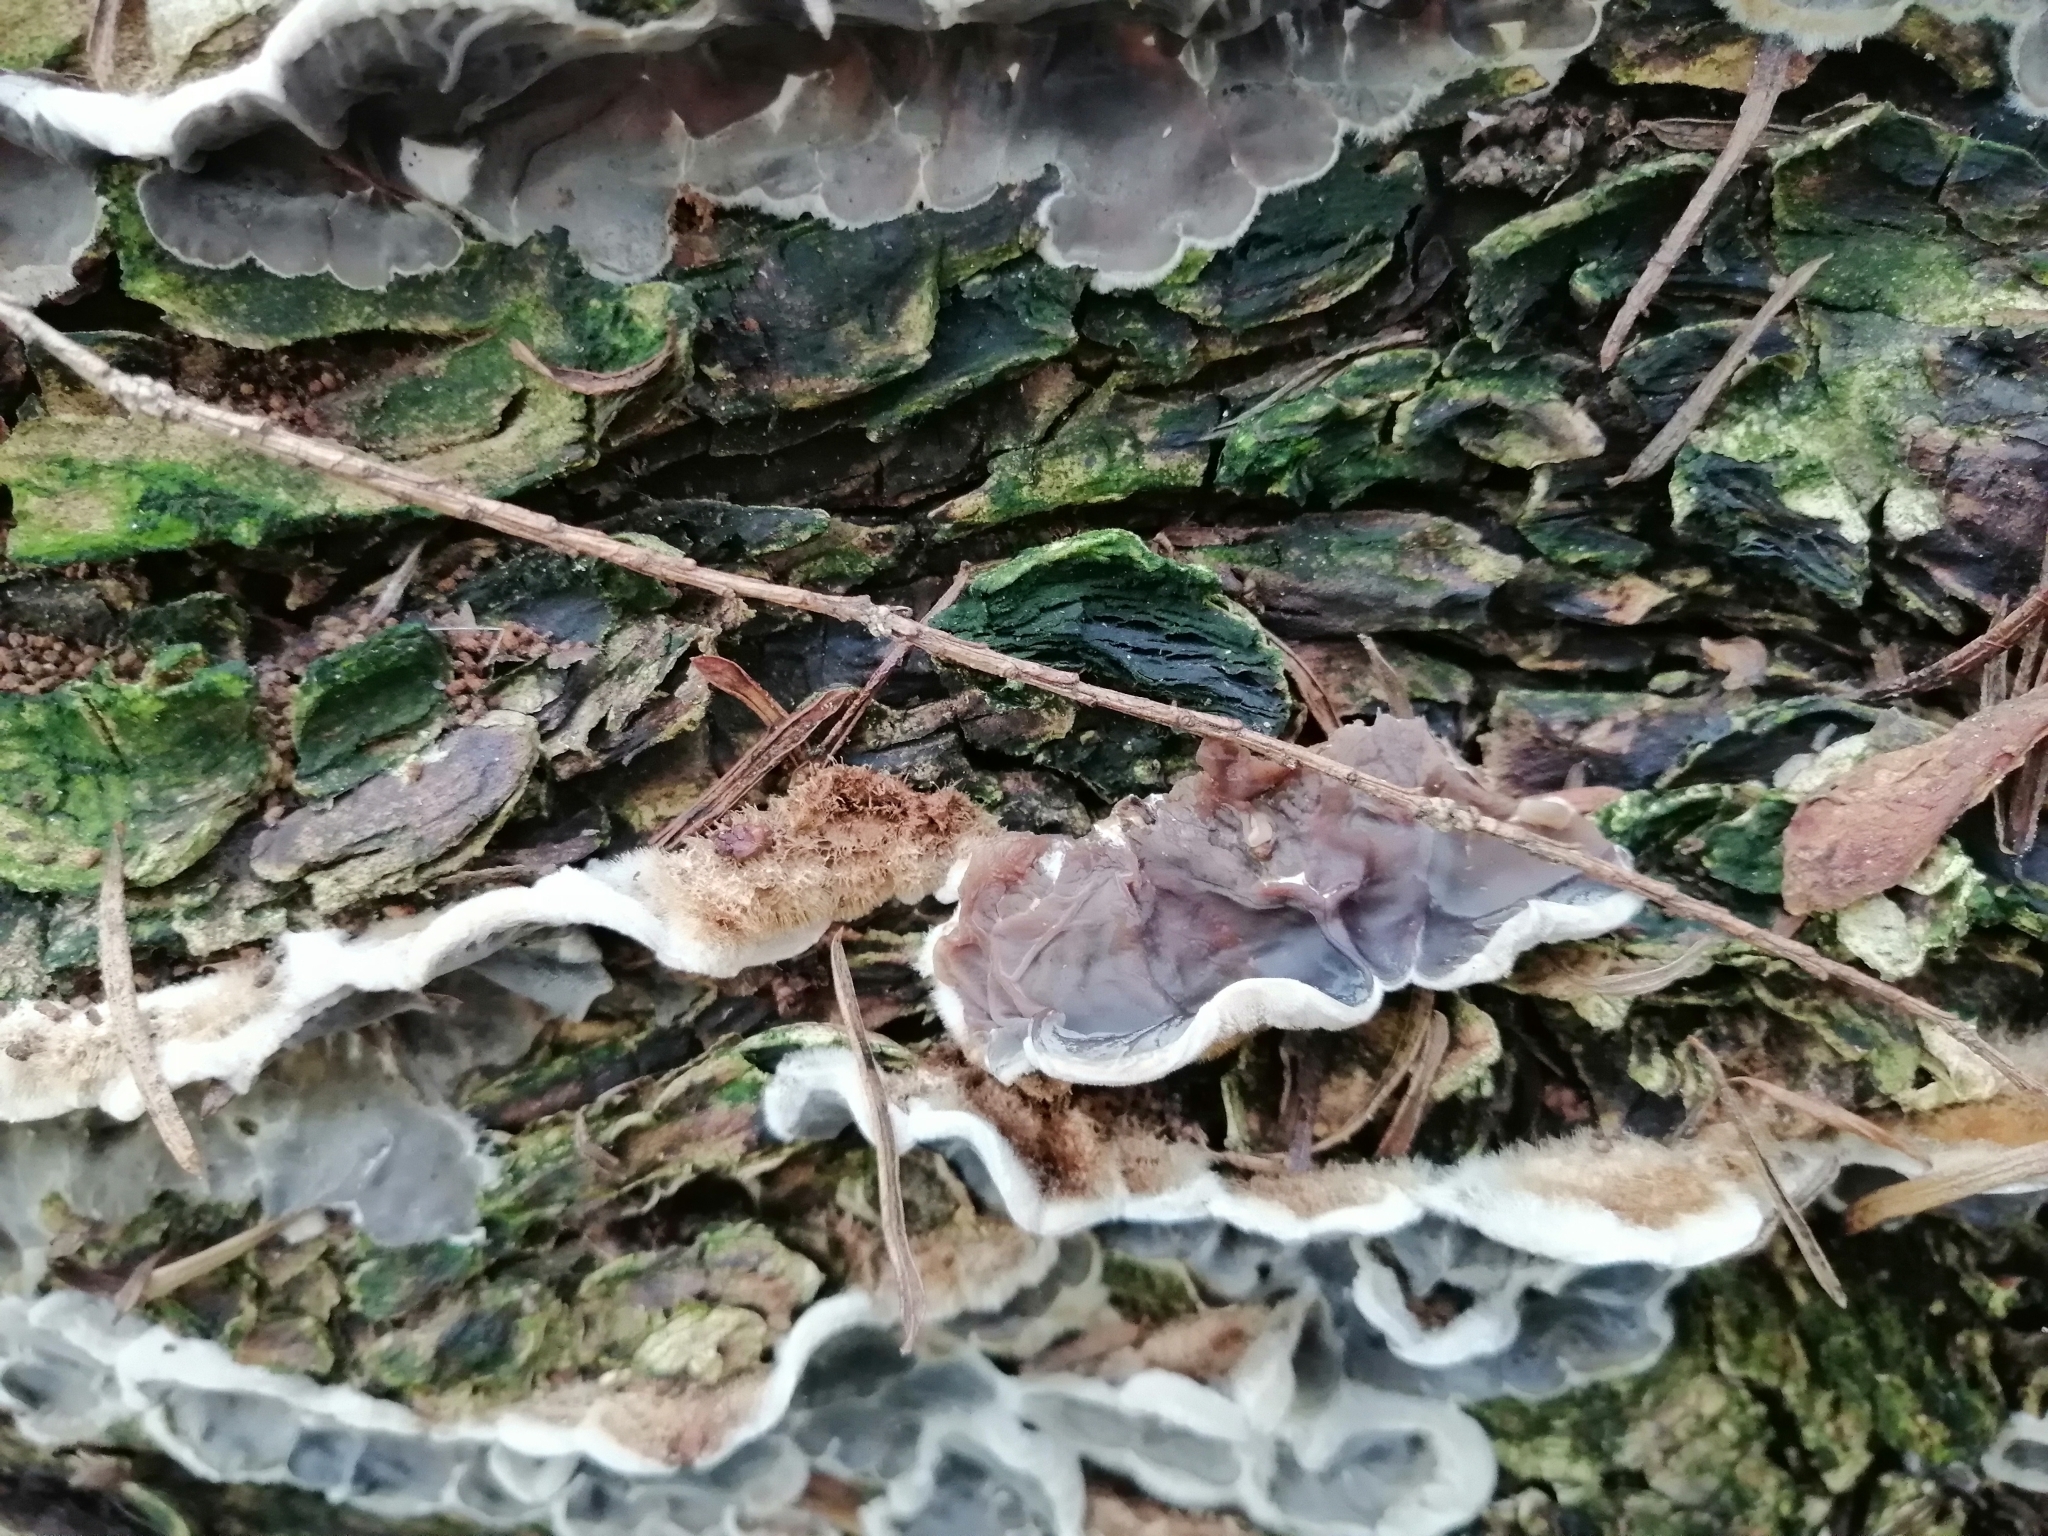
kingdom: Fungi
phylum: Basidiomycota
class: Agaricomycetes
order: Auriculariales
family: Auriculariaceae
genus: Auricularia
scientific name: Auricularia mesenterica
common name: Tripe fungus
